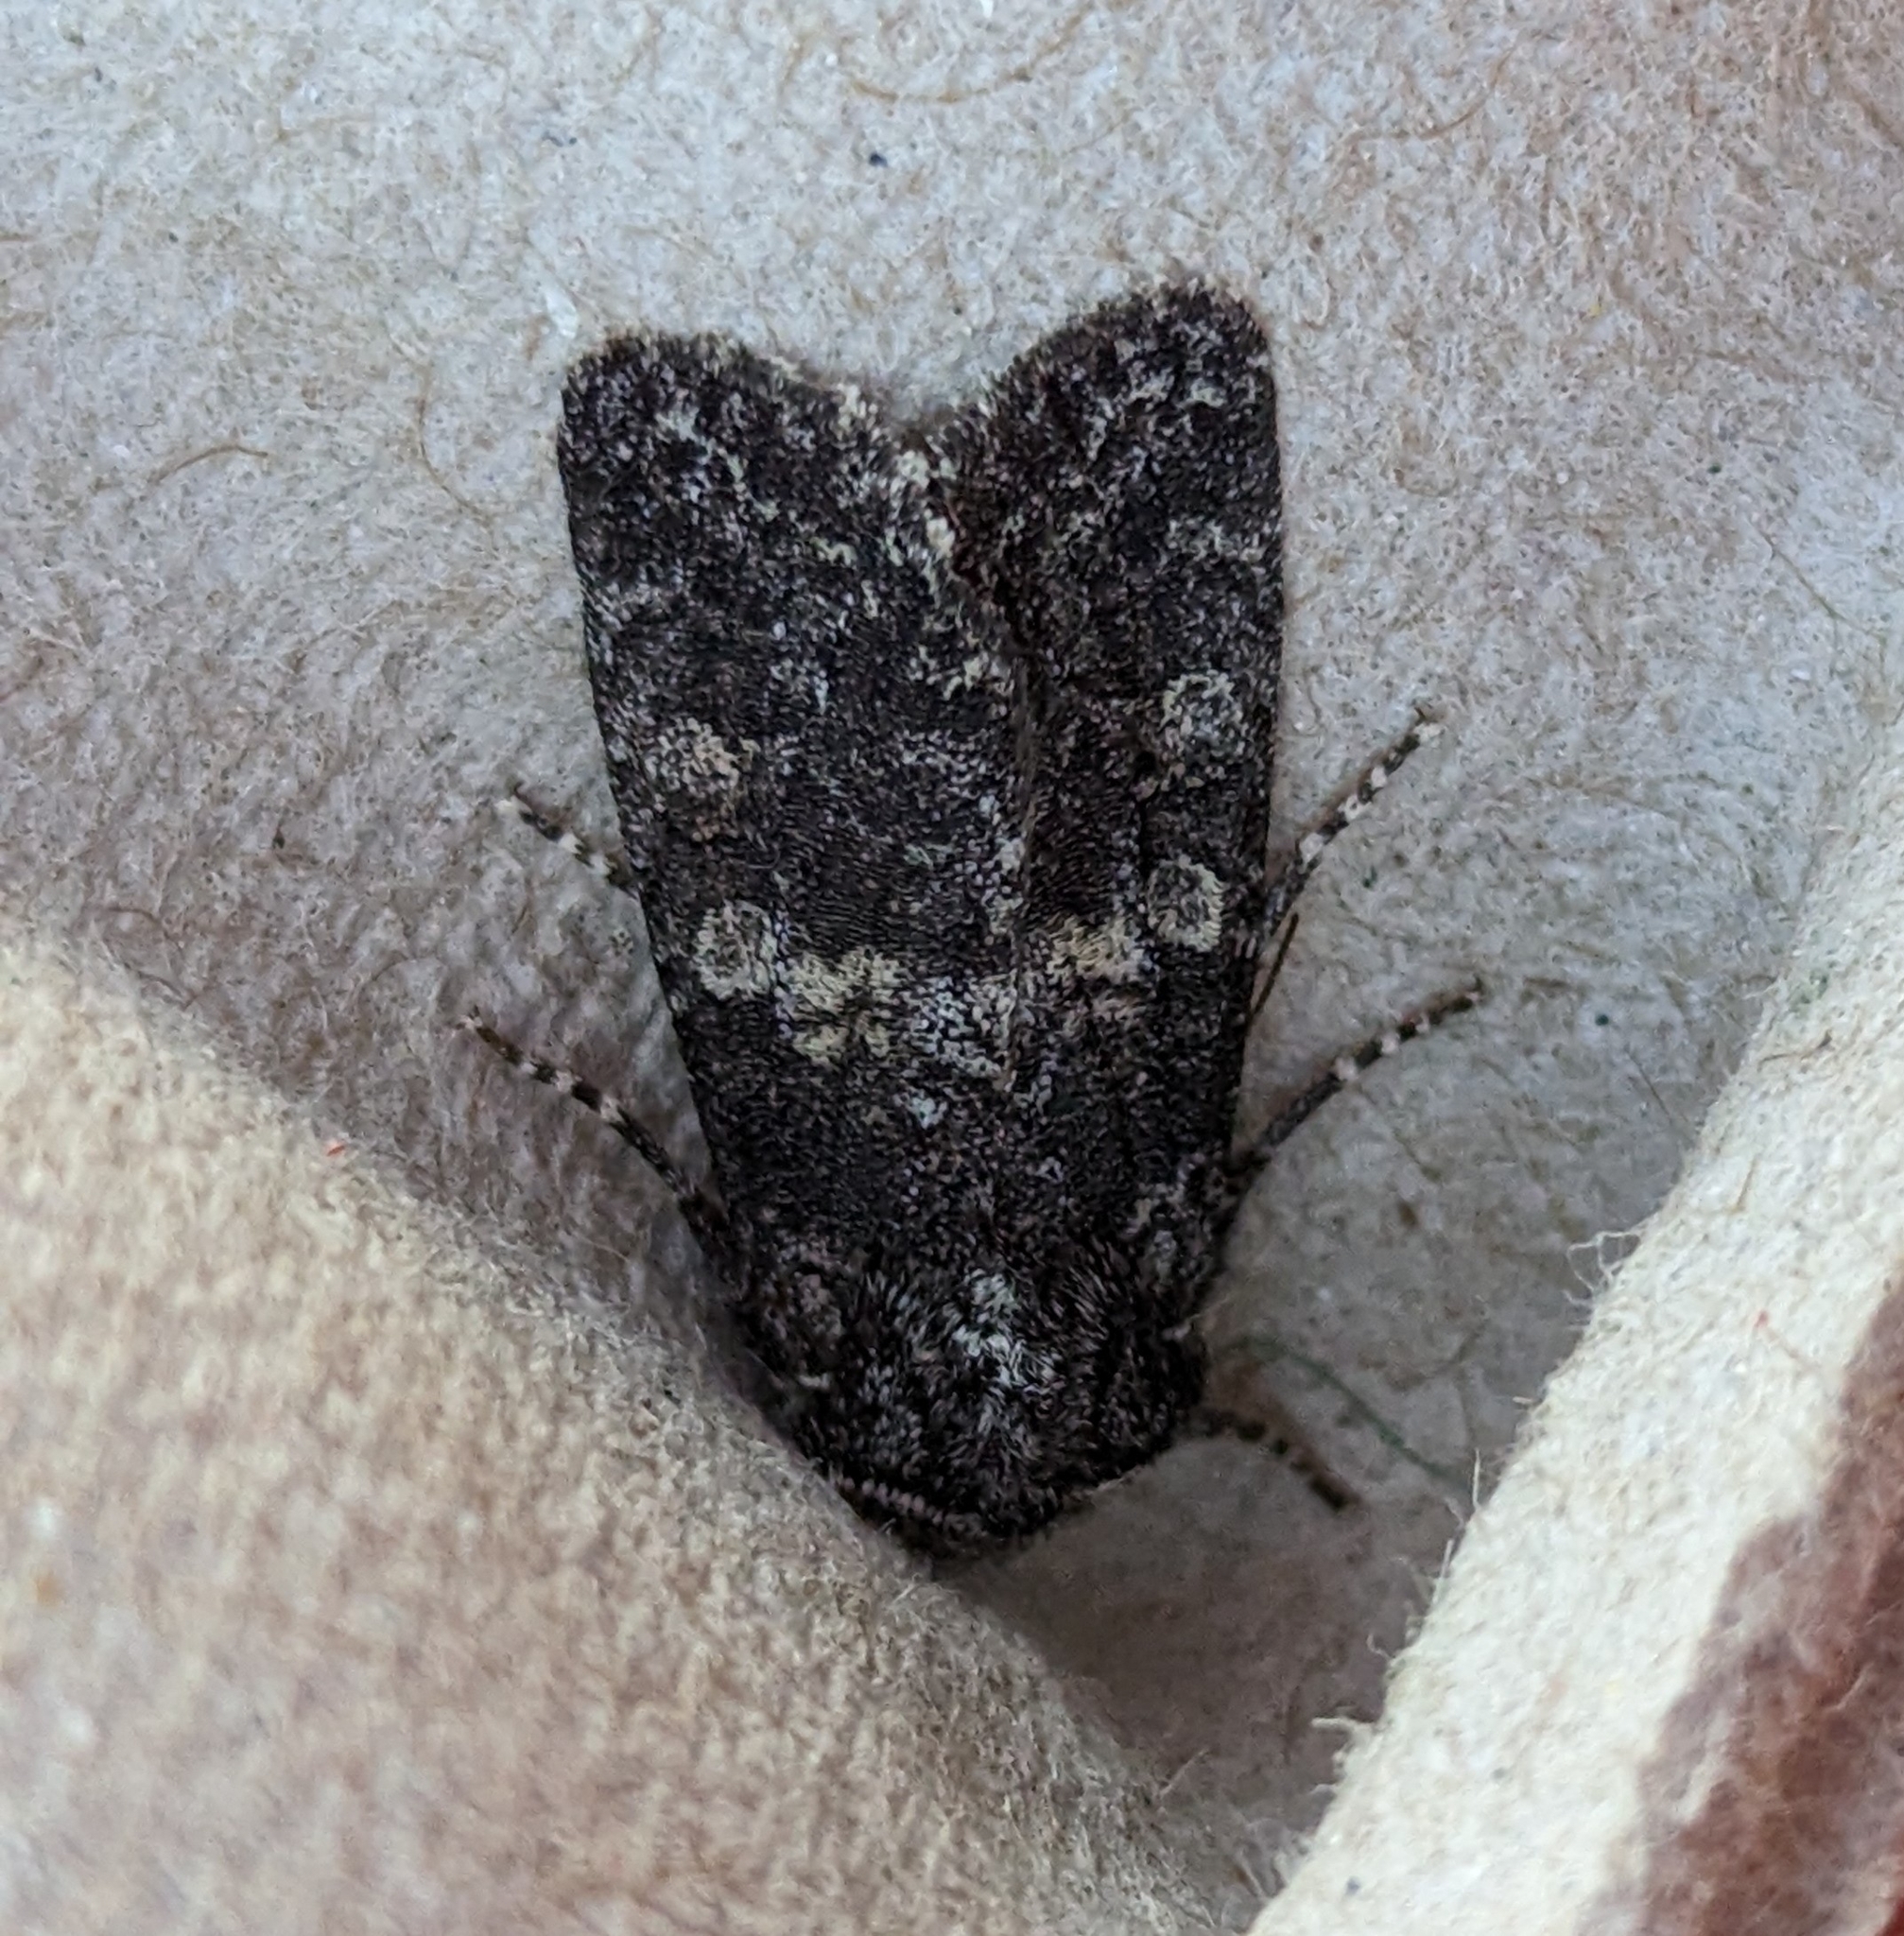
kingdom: Animalia
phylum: Arthropoda
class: Insecta
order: Lepidoptera
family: Noctuidae
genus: Egira
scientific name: Egira dolosa
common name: Lined black aspen cat.
